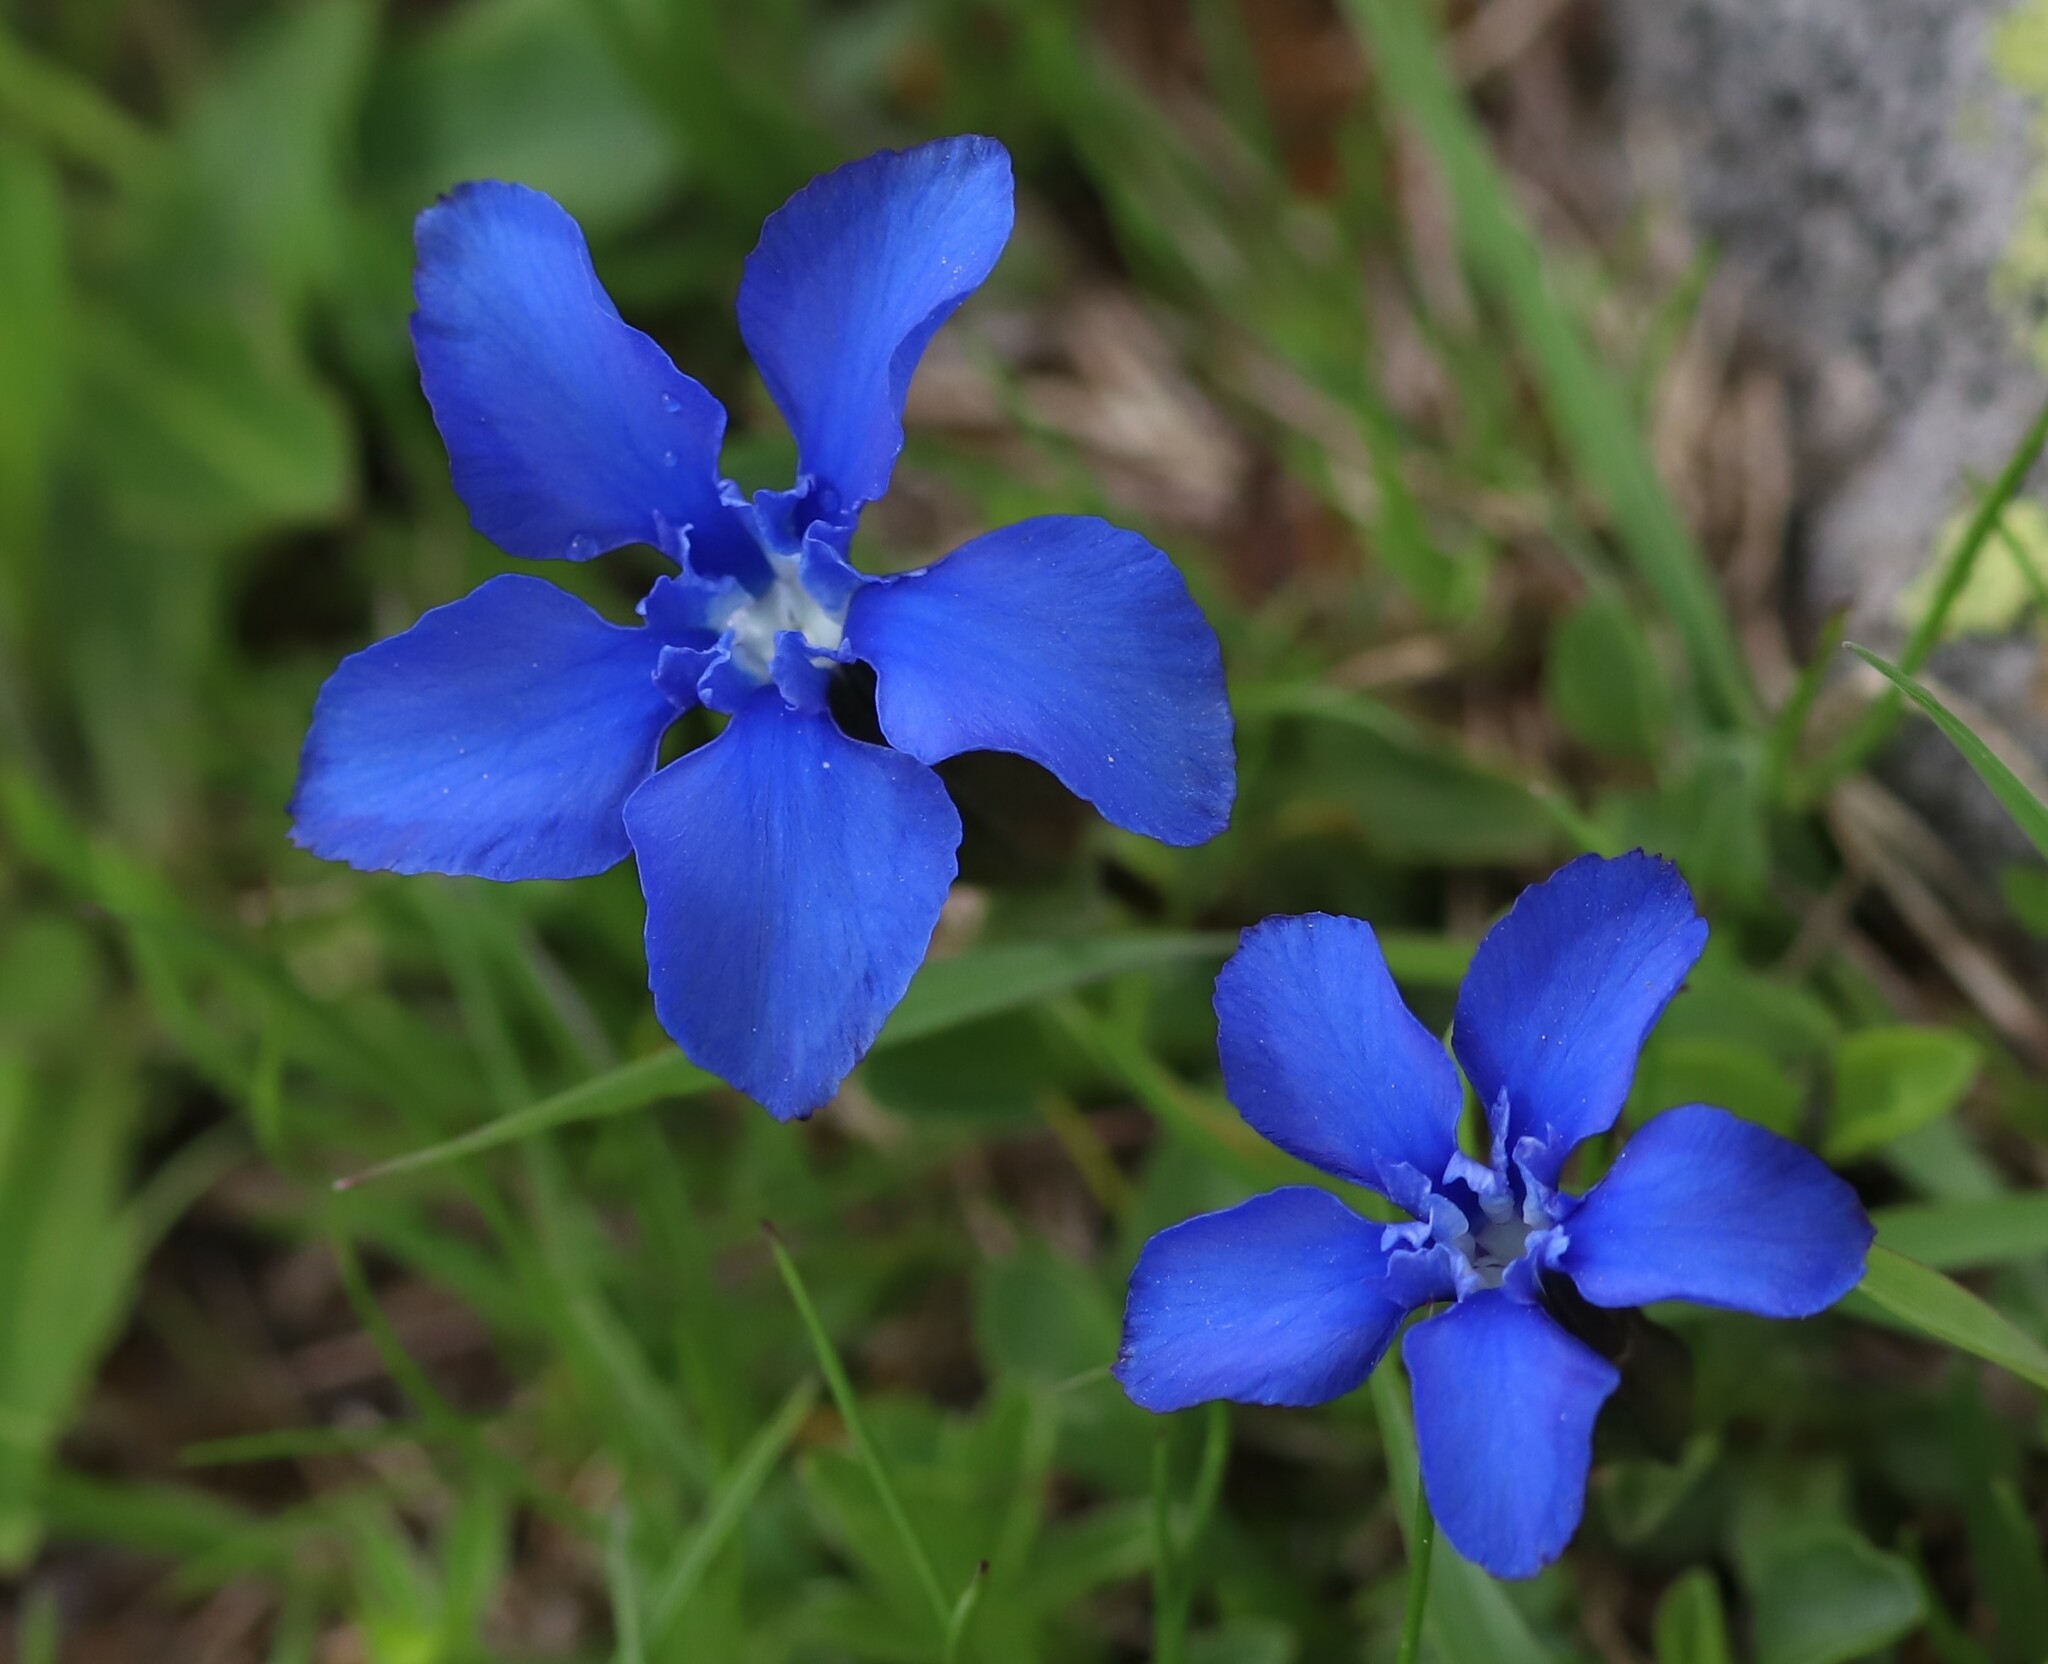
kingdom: Plantae
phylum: Tracheophyta
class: Magnoliopsida
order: Gentianales
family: Gentianaceae
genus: Gentiana
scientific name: Gentiana verna
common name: Spring gentian
